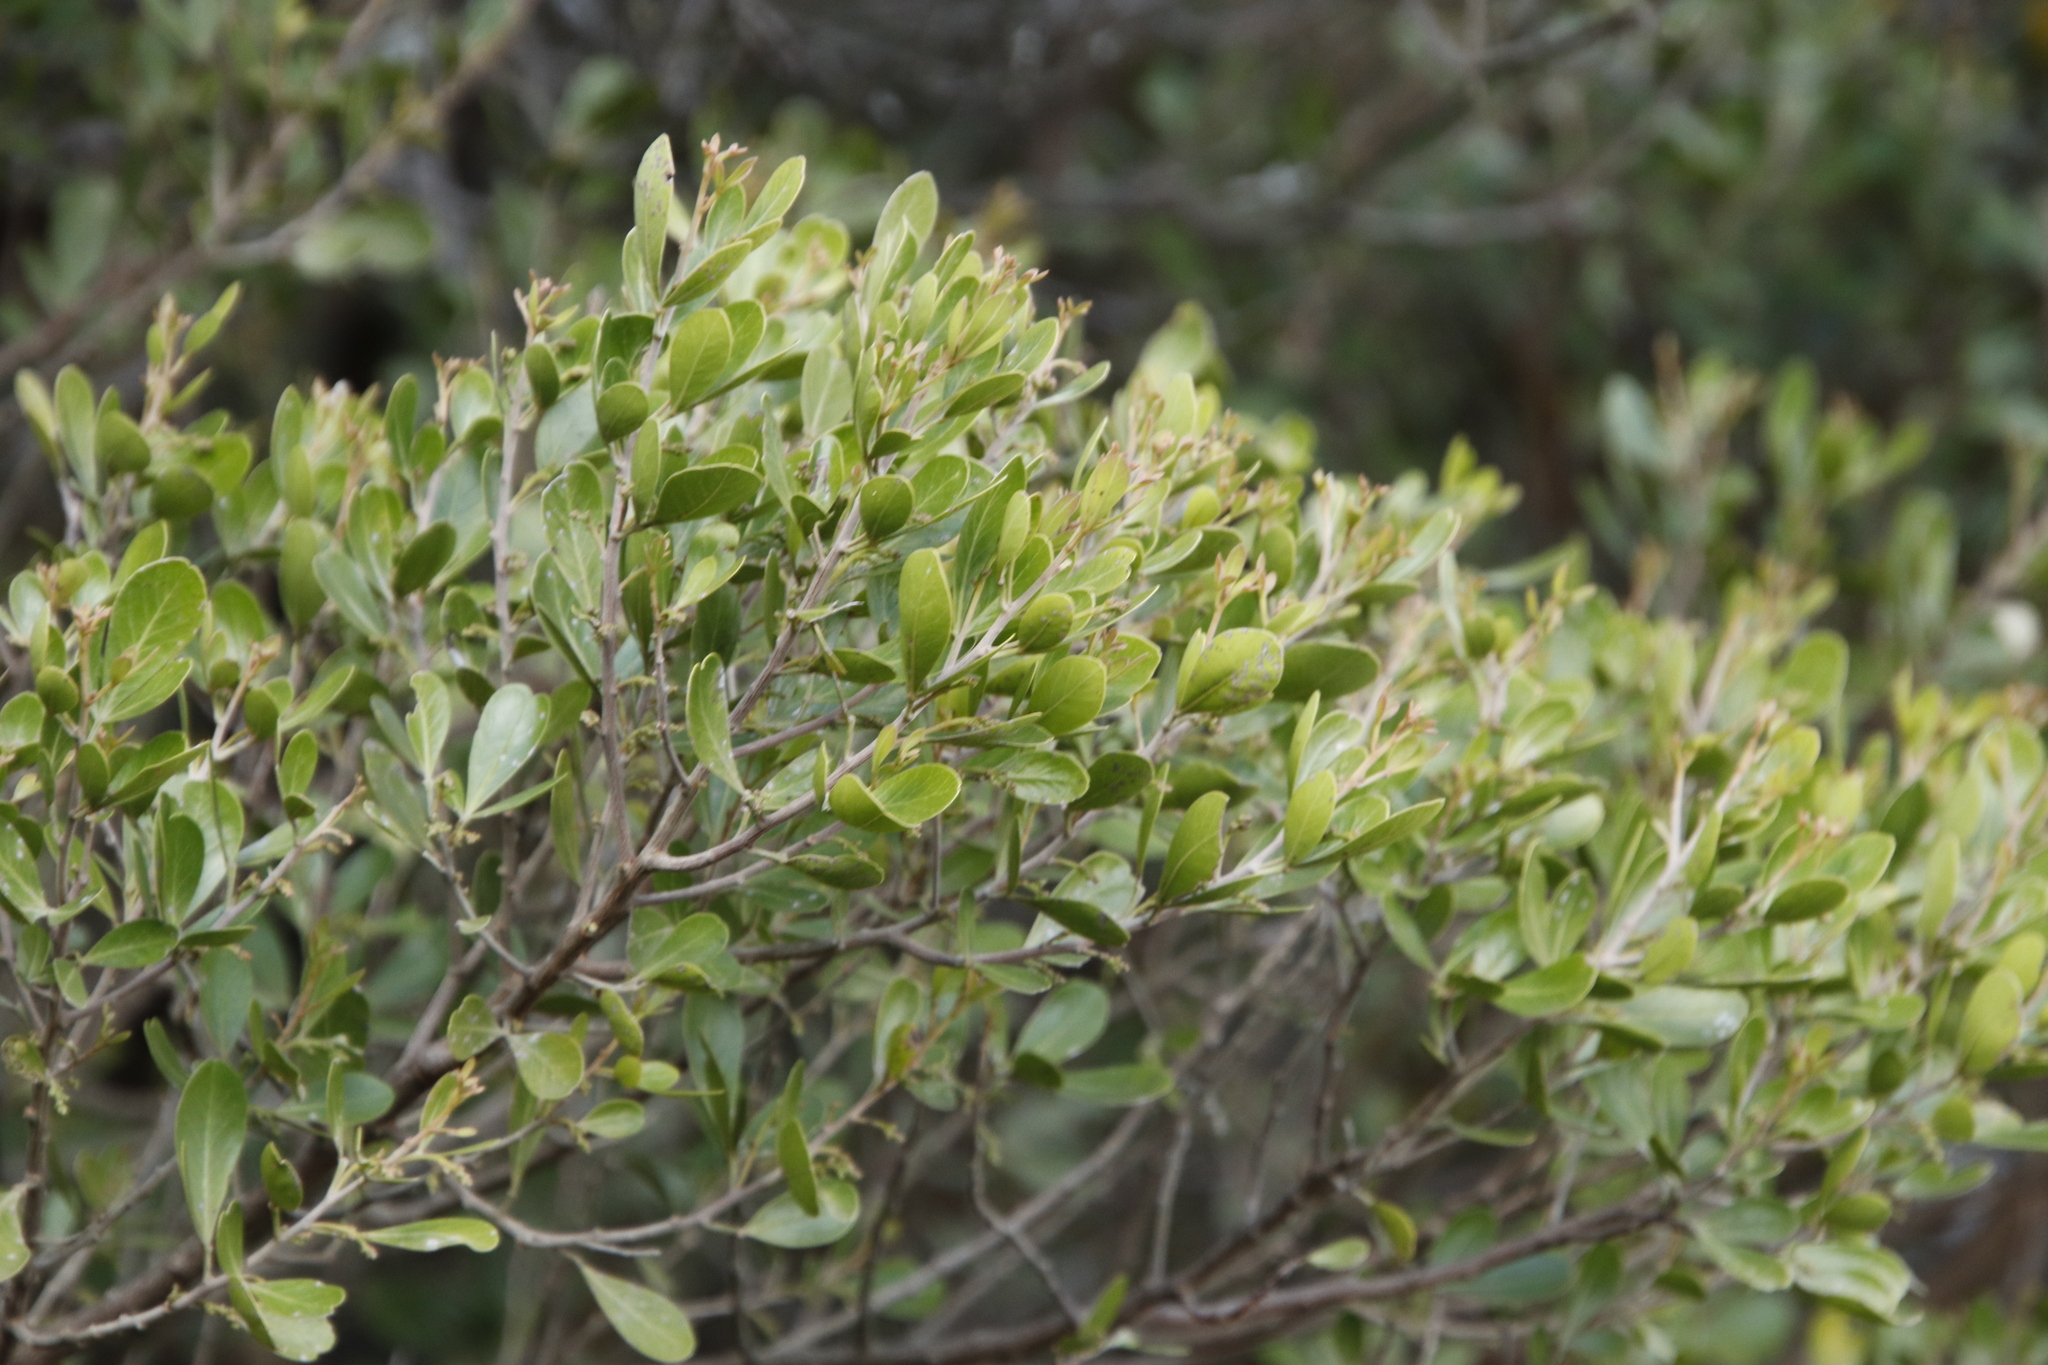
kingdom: Plantae
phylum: Tracheophyta
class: Magnoliopsida
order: Sapindales
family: Anacardiaceae
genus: Searsia
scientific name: Searsia lucida
